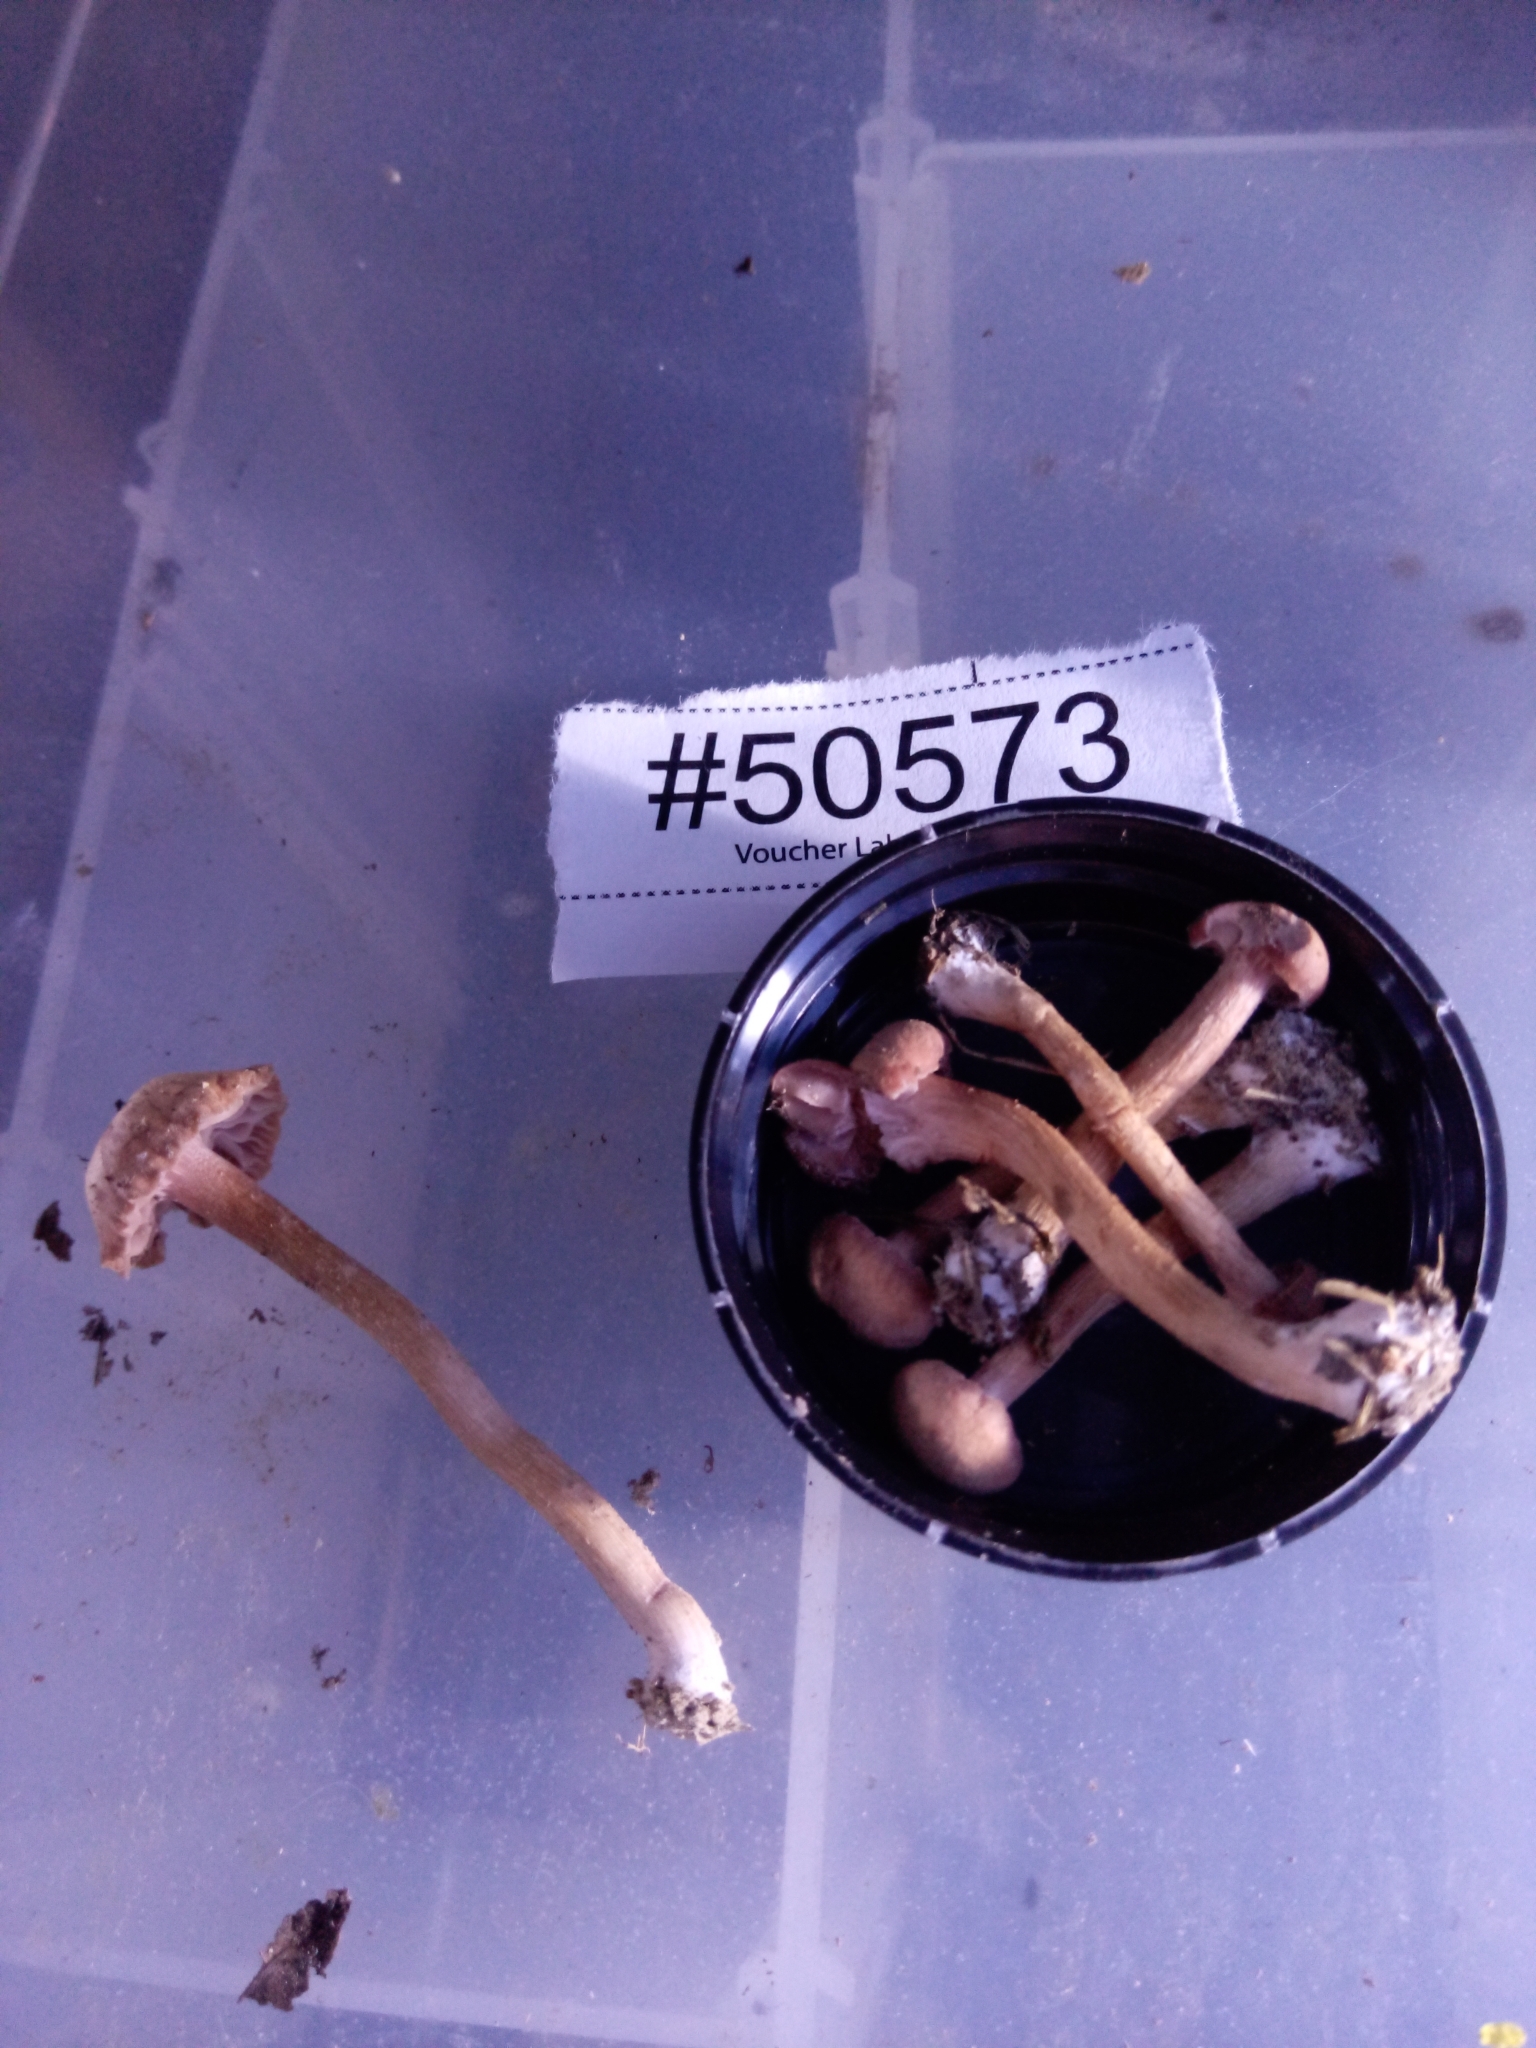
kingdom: Fungi
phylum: Basidiomycota
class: Agaricomycetes
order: Agaricales
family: Hydnangiaceae
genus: Laccaria
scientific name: Laccaria laccata
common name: Deceiver
